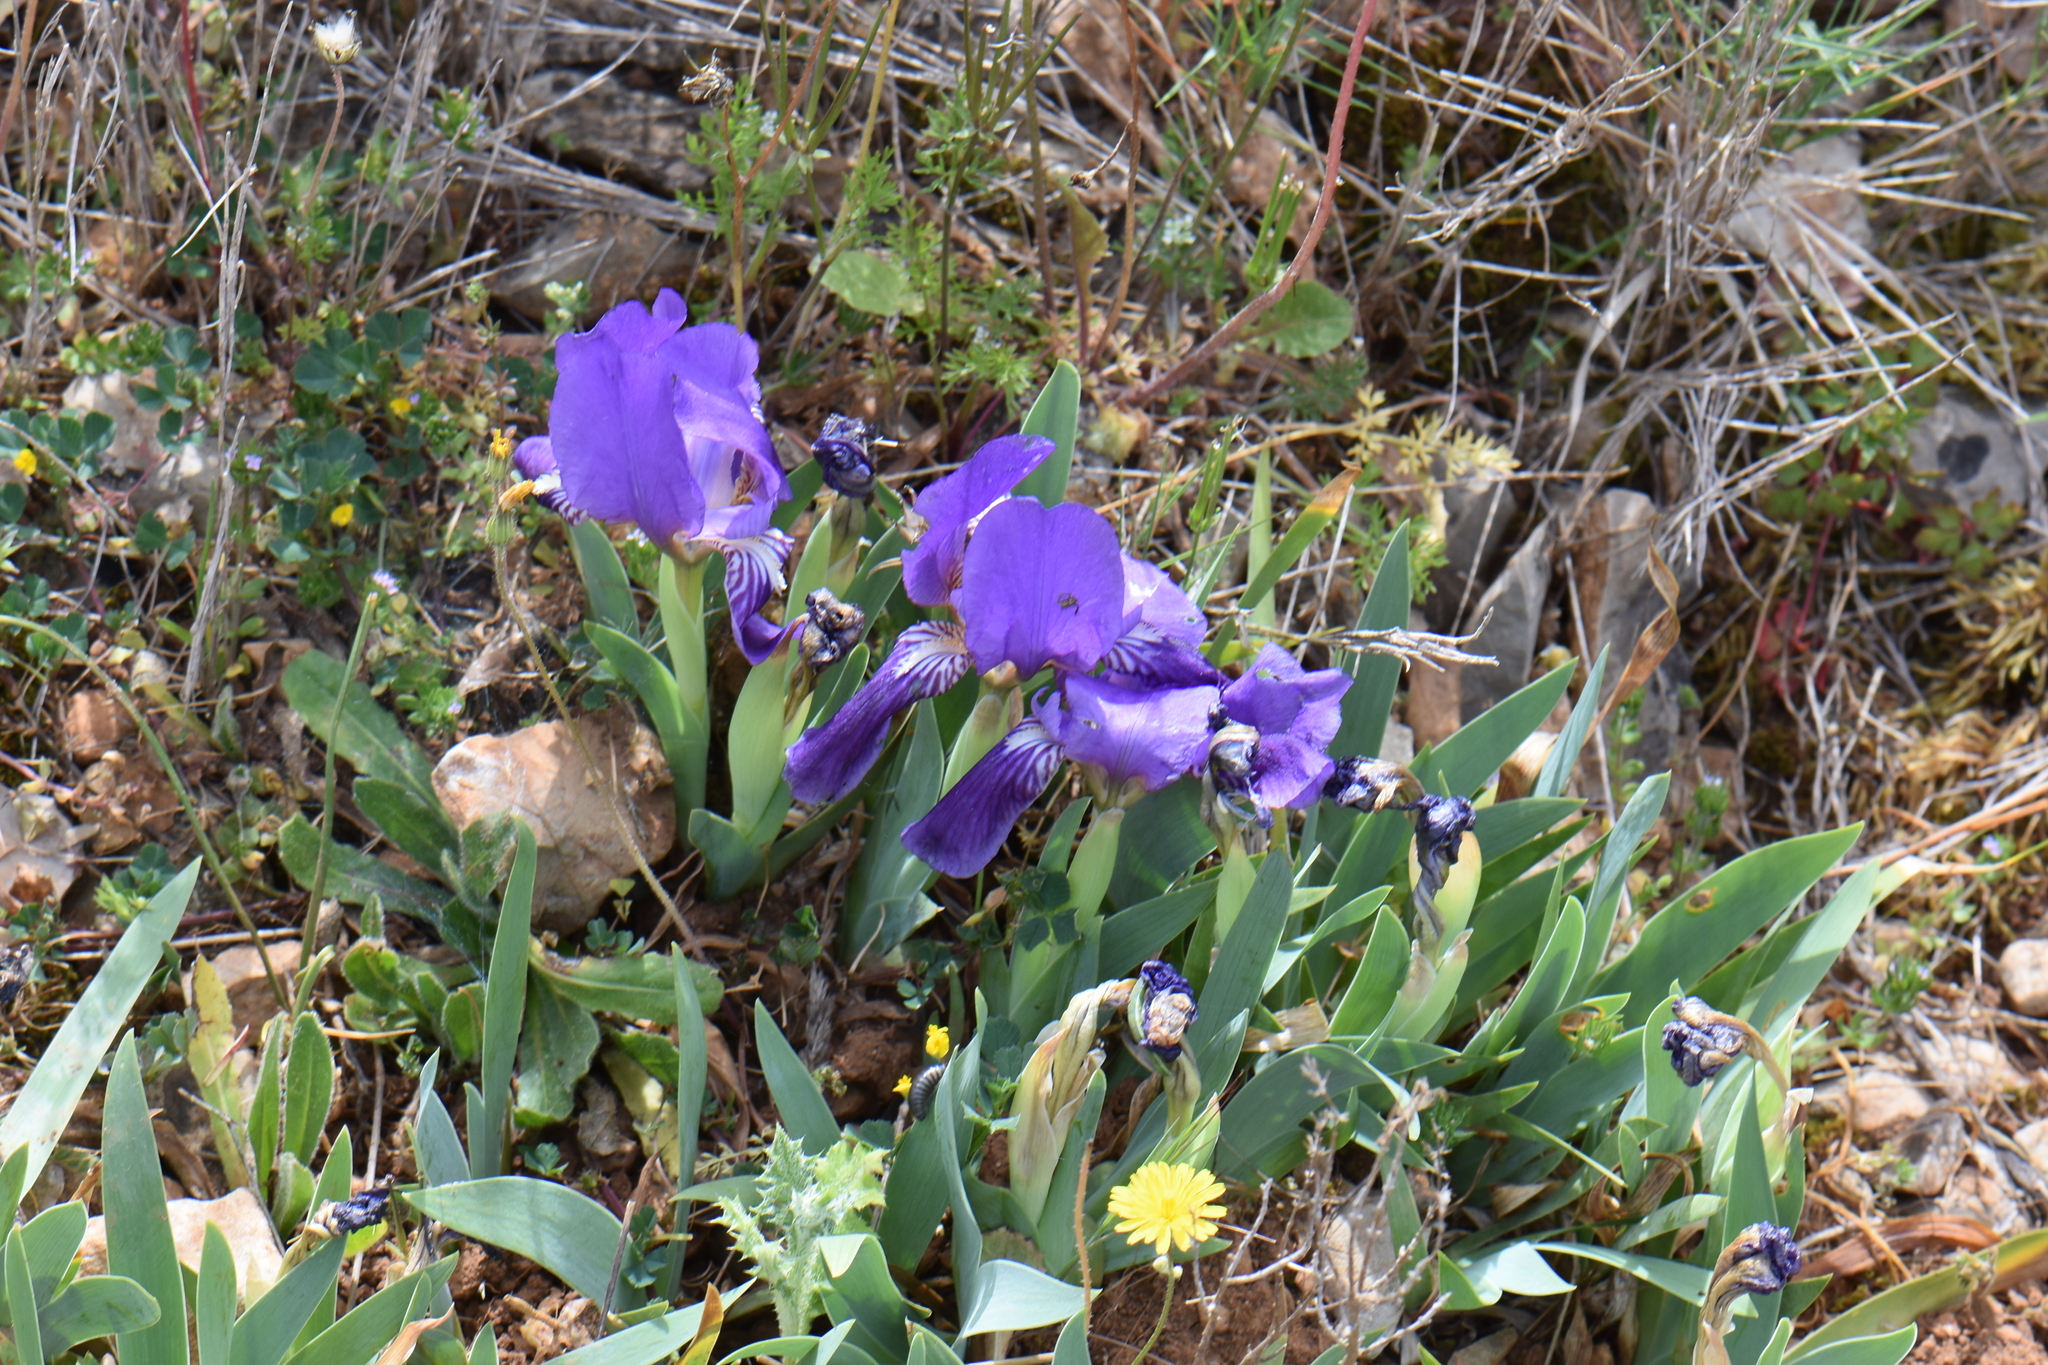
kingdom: Plantae
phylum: Tracheophyta
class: Liliopsida
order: Asparagales
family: Iridaceae
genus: Iris
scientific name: Iris lutescens
